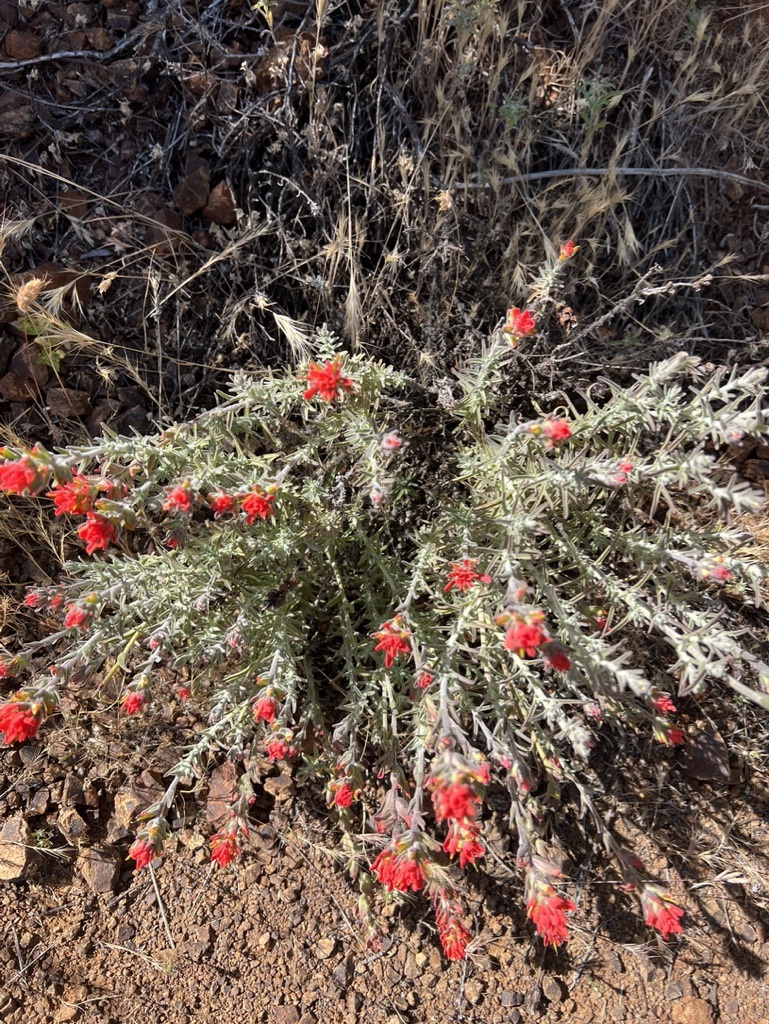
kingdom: Plantae
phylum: Tracheophyta
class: Magnoliopsida
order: Lamiales
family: Orobanchaceae
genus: Castilleja
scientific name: Castilleja foliolosa
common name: Woolly indian paintbrush
